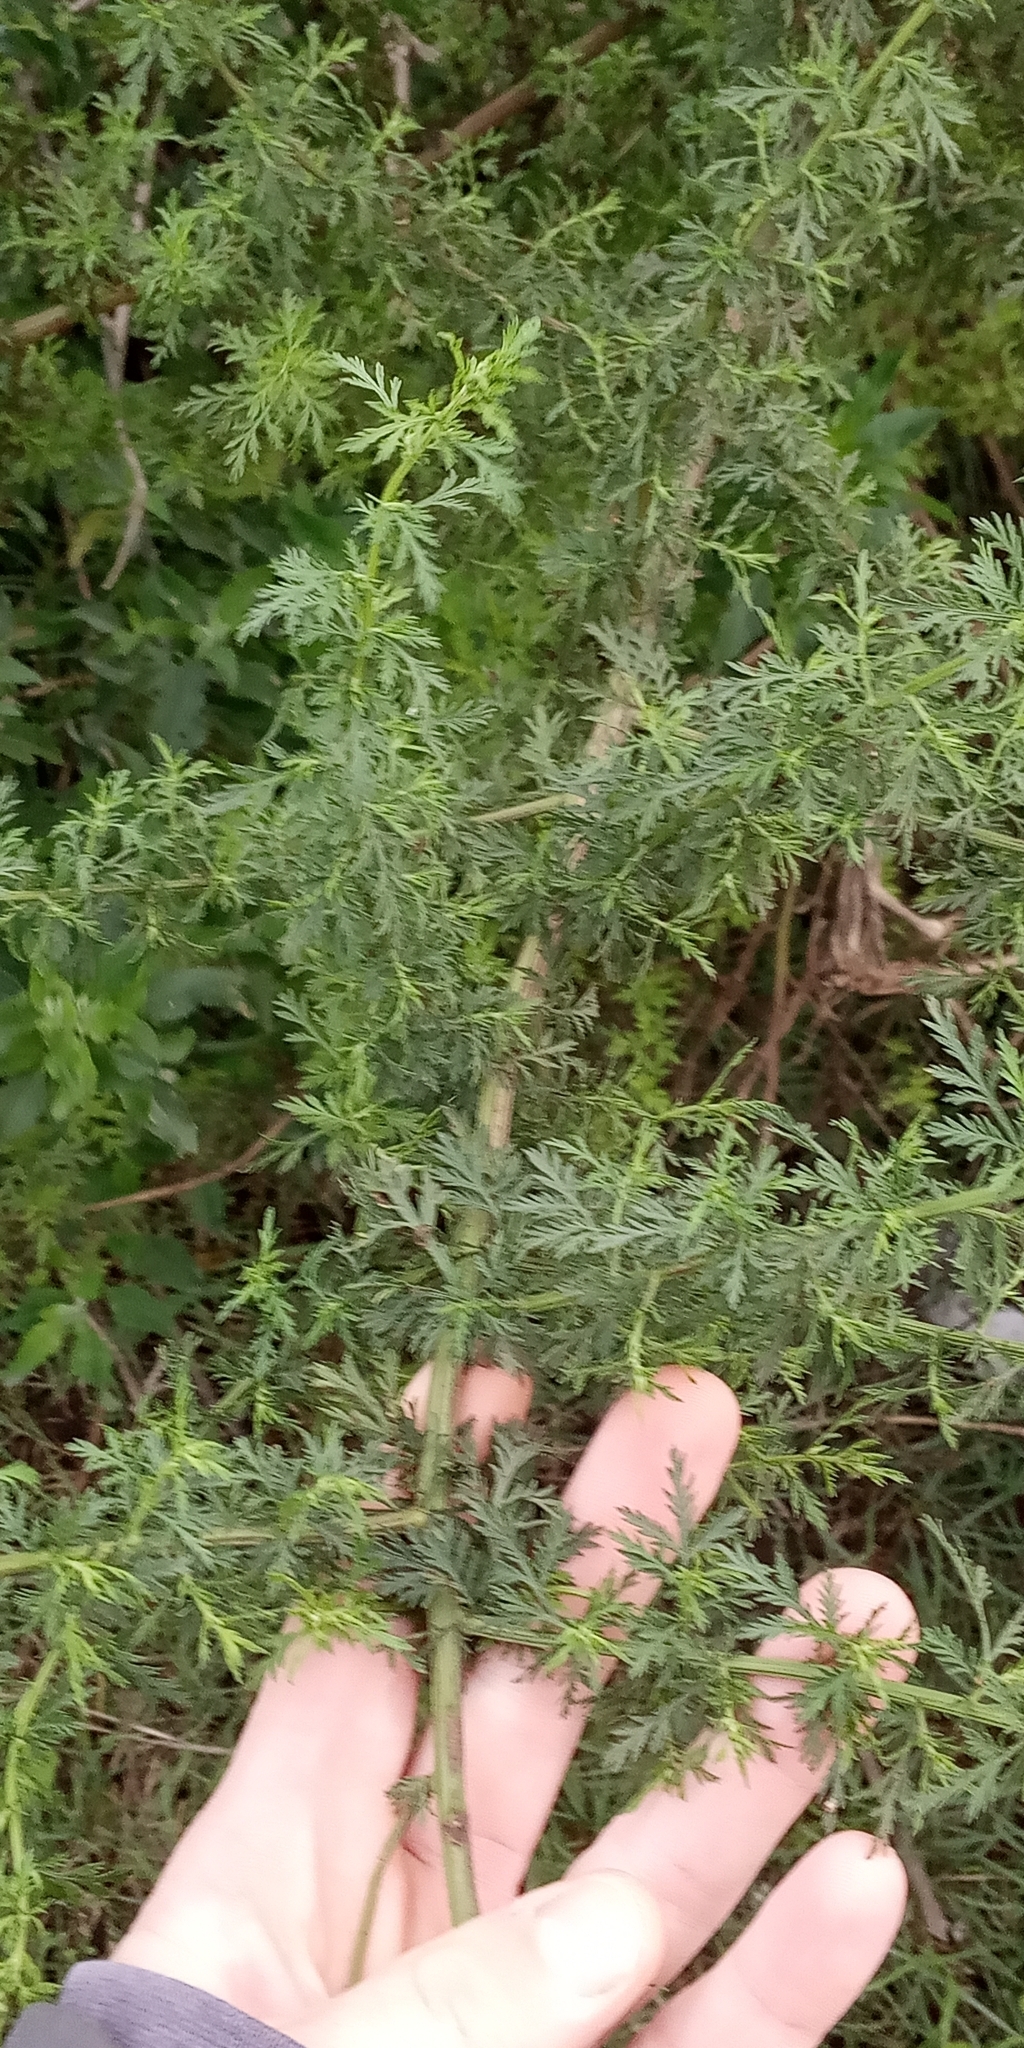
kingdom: Plantae
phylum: Tracheophyta
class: Magnoliopsida
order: Asterales
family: Asteraceae
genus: Artemisia
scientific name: Artemisia annua
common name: Sweet sagewort
